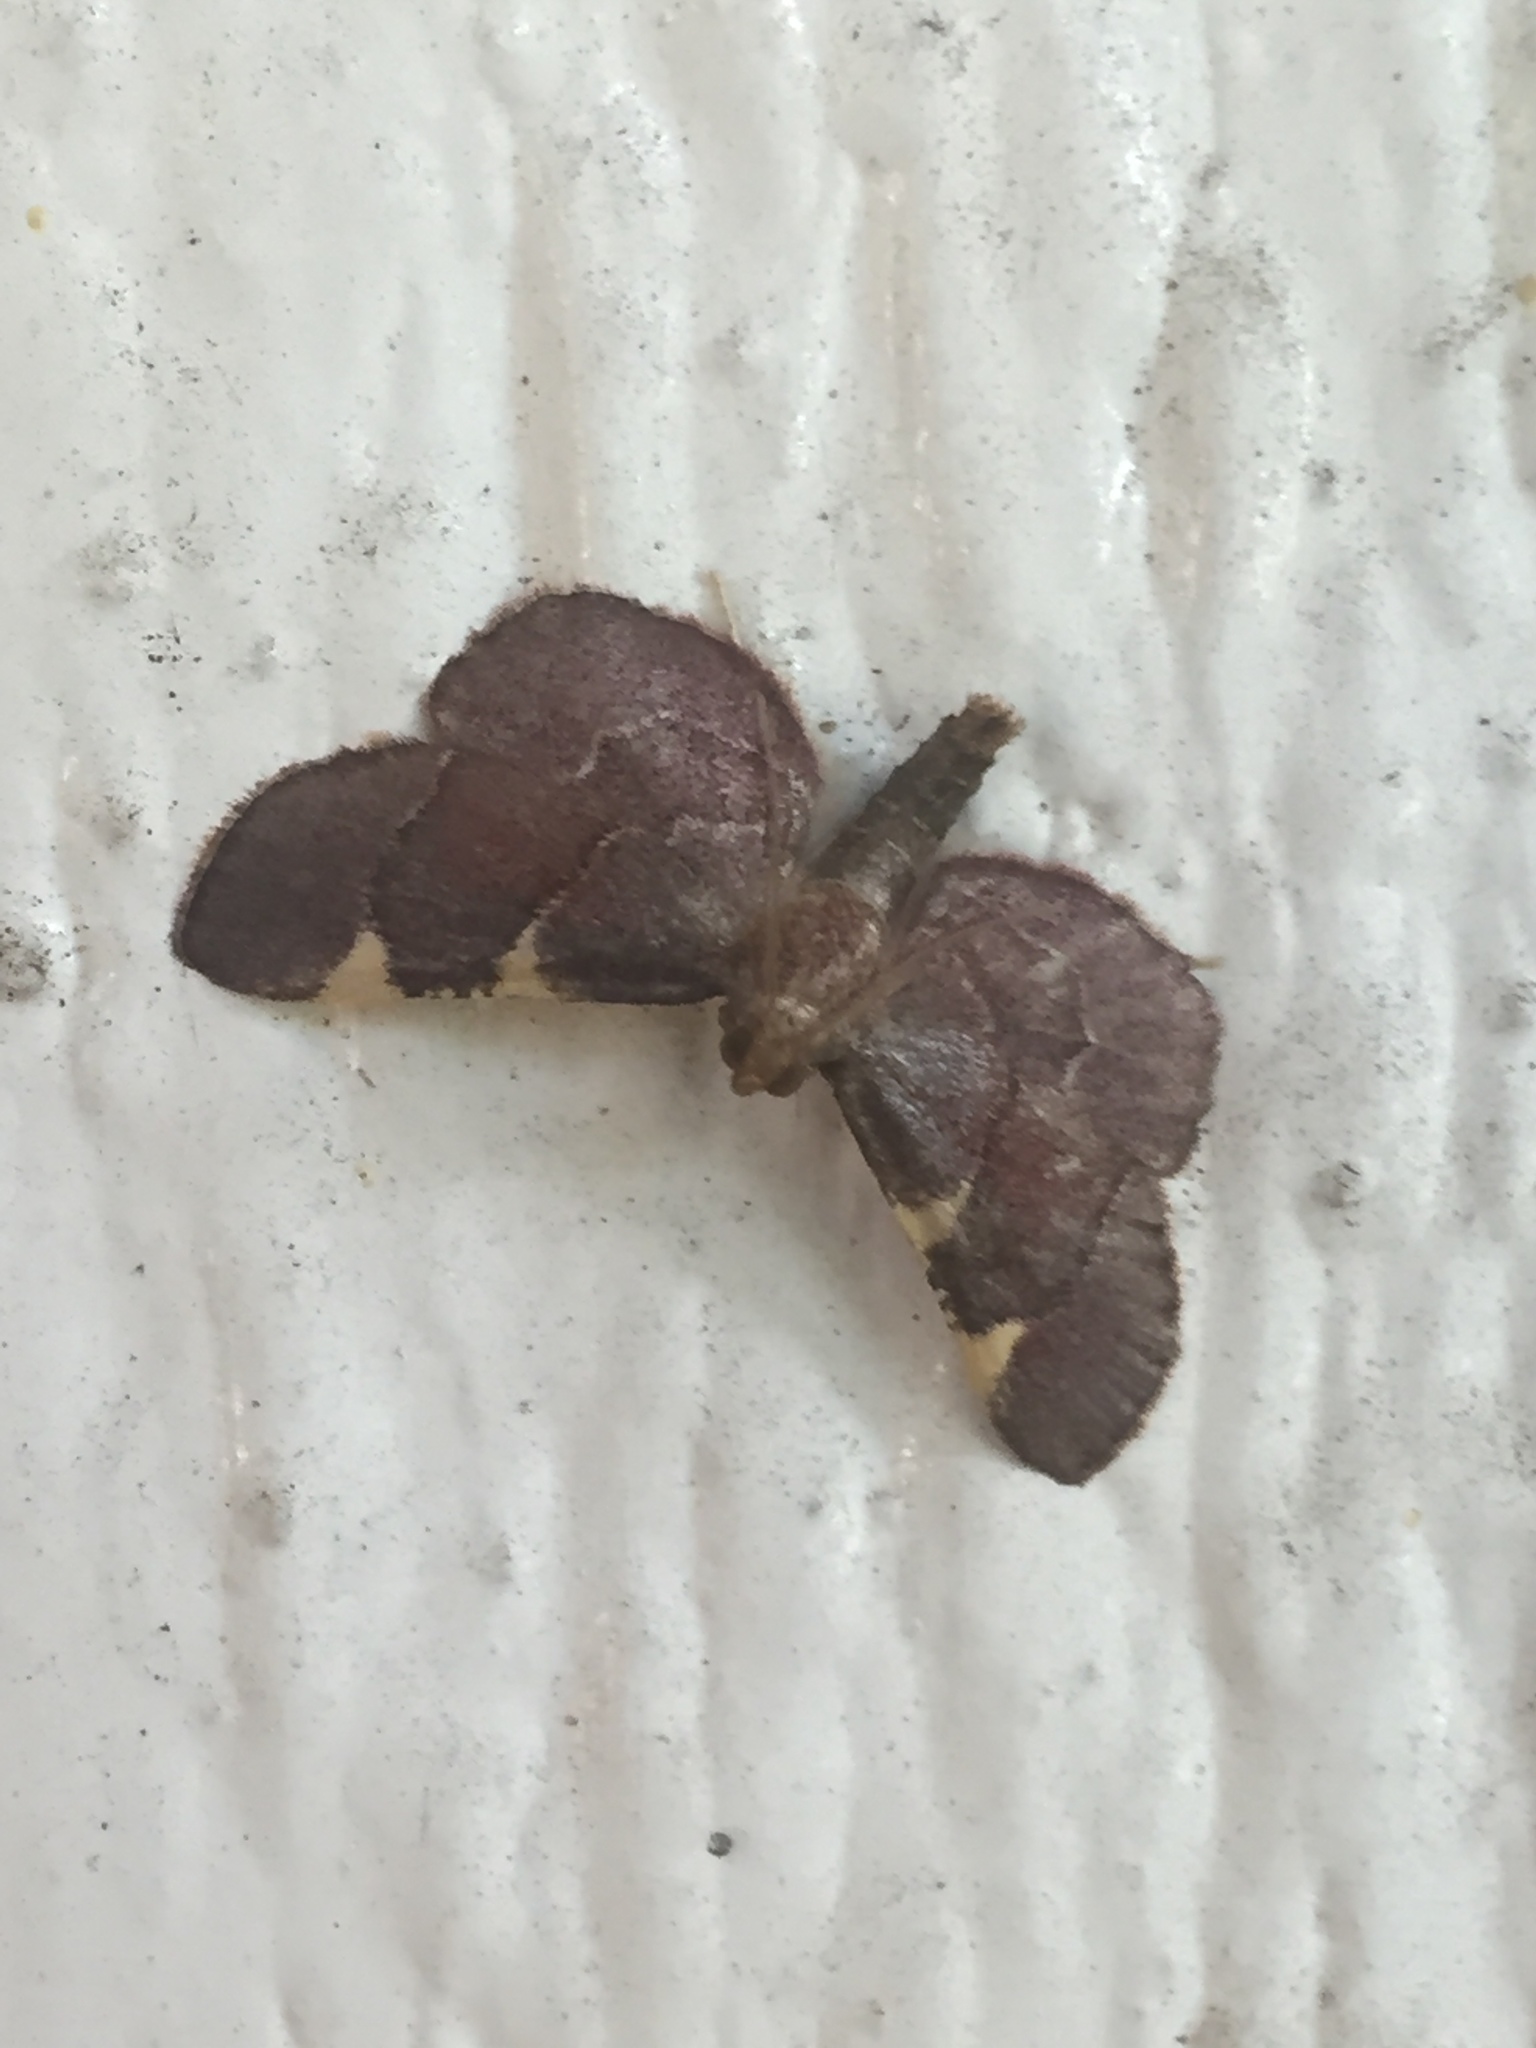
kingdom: Animalia
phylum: Arthropoda
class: Insecta
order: Lepidoptera
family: Pyralidae
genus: Hypsopygia
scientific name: Hypsopygia olinalis
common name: Yellow-fringed dolichomia moth
